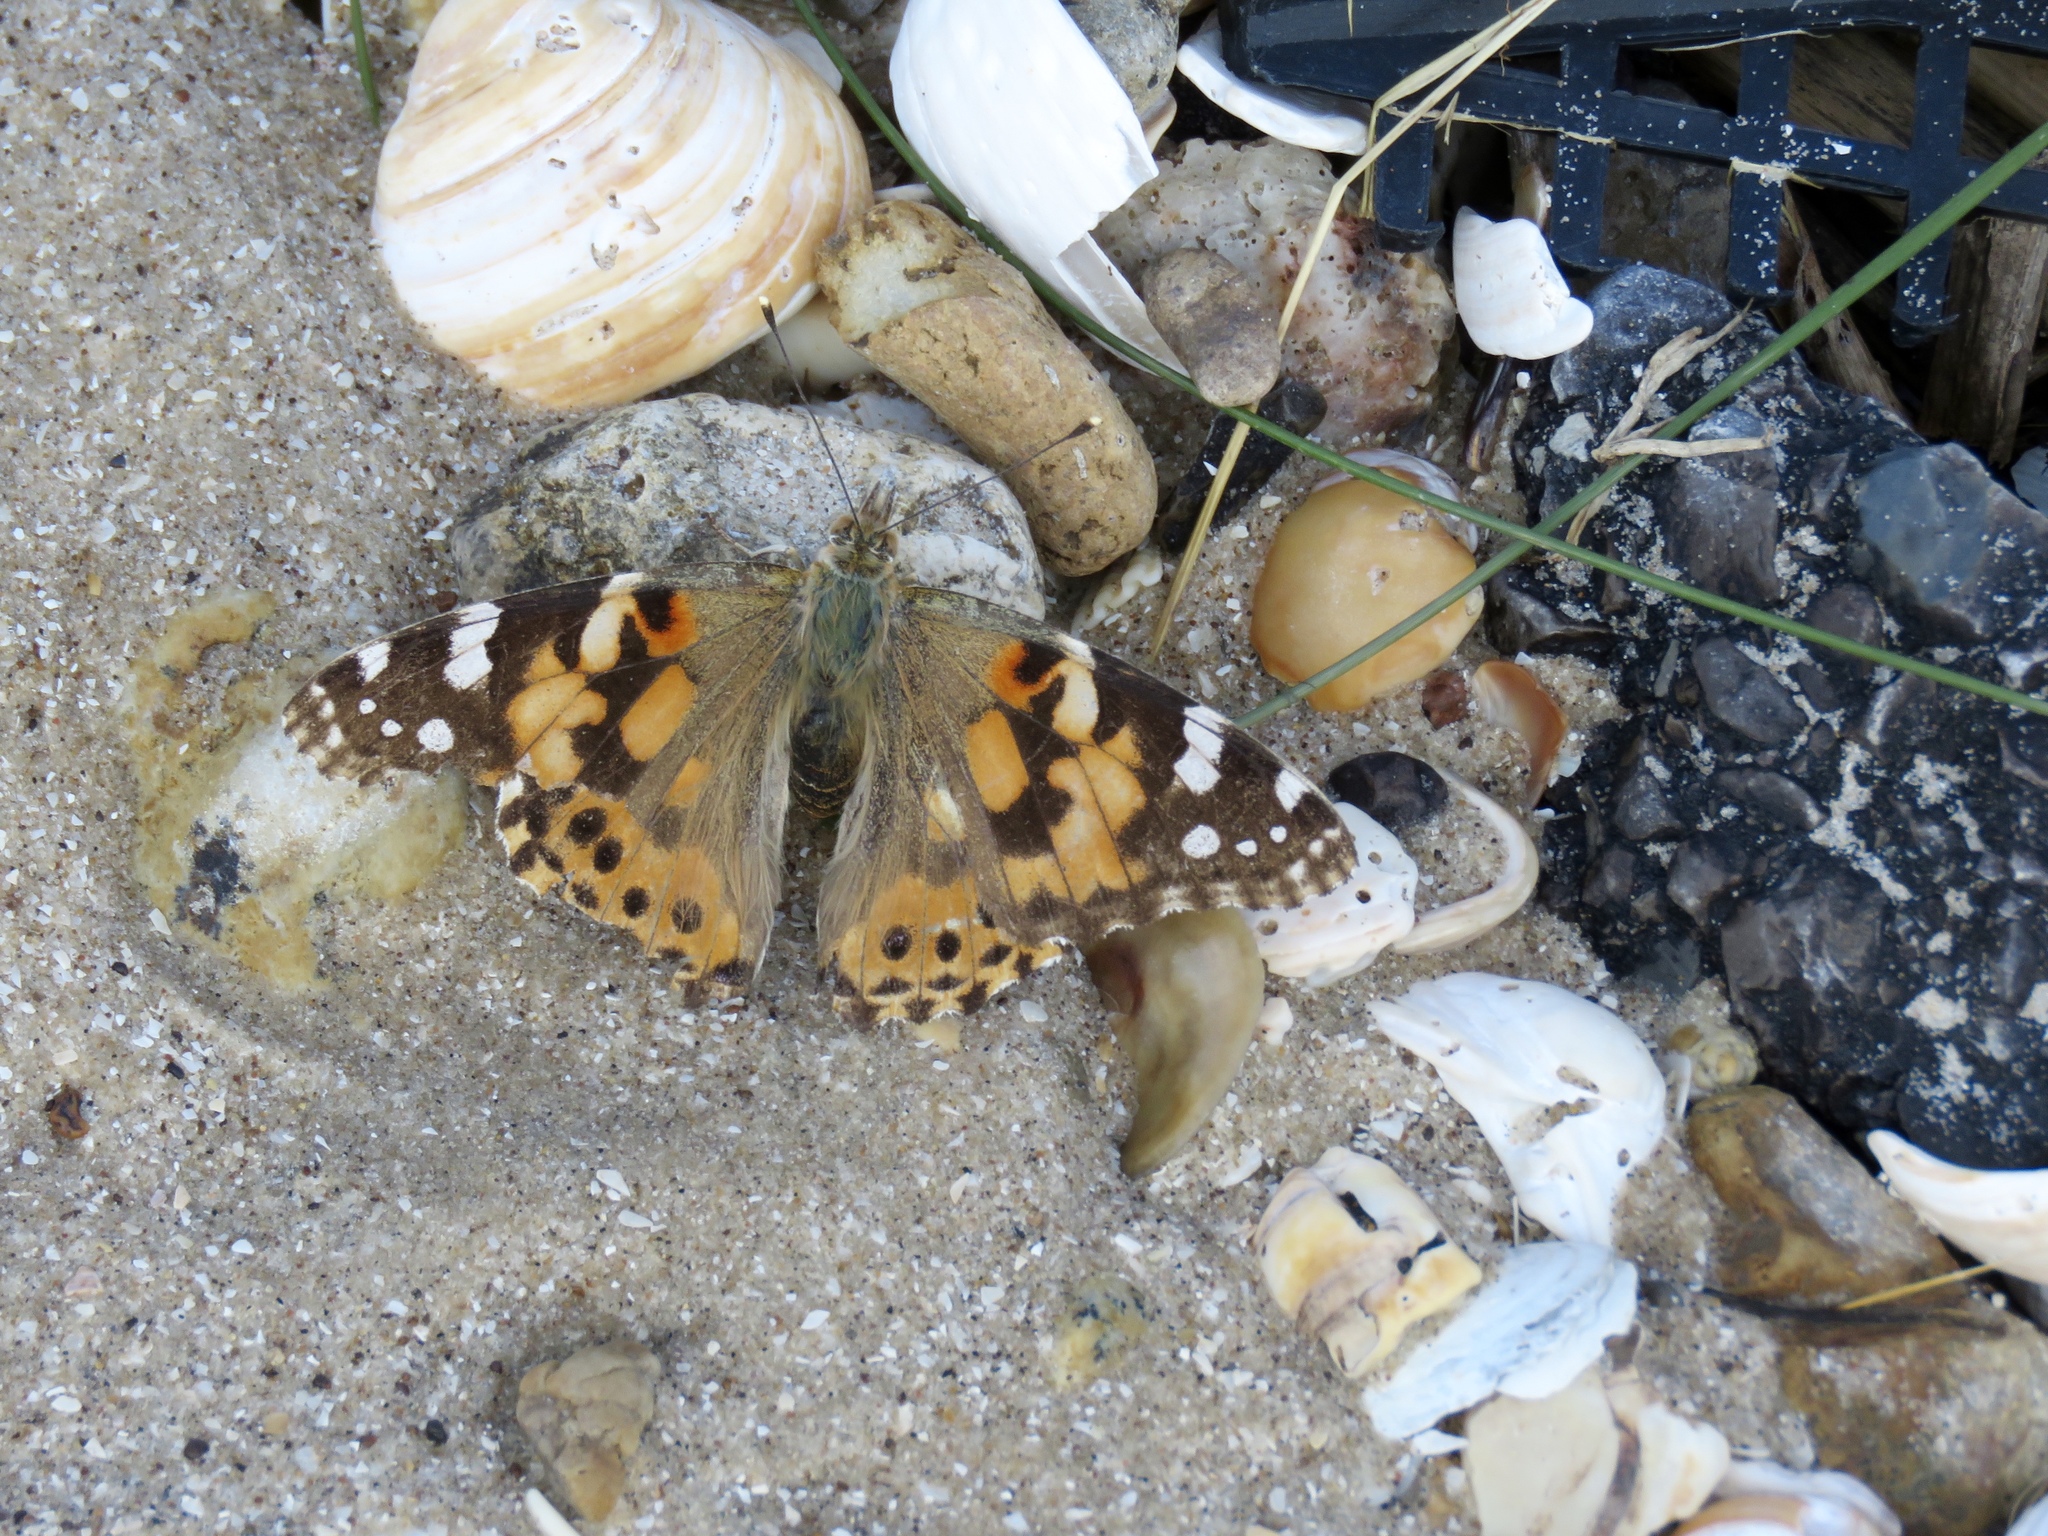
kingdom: Animalia
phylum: Arthropoda
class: Insecta
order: Lepidoptera
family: Nymphalidae
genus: Vanessa
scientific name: Vanessa cardui
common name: Painted lady
